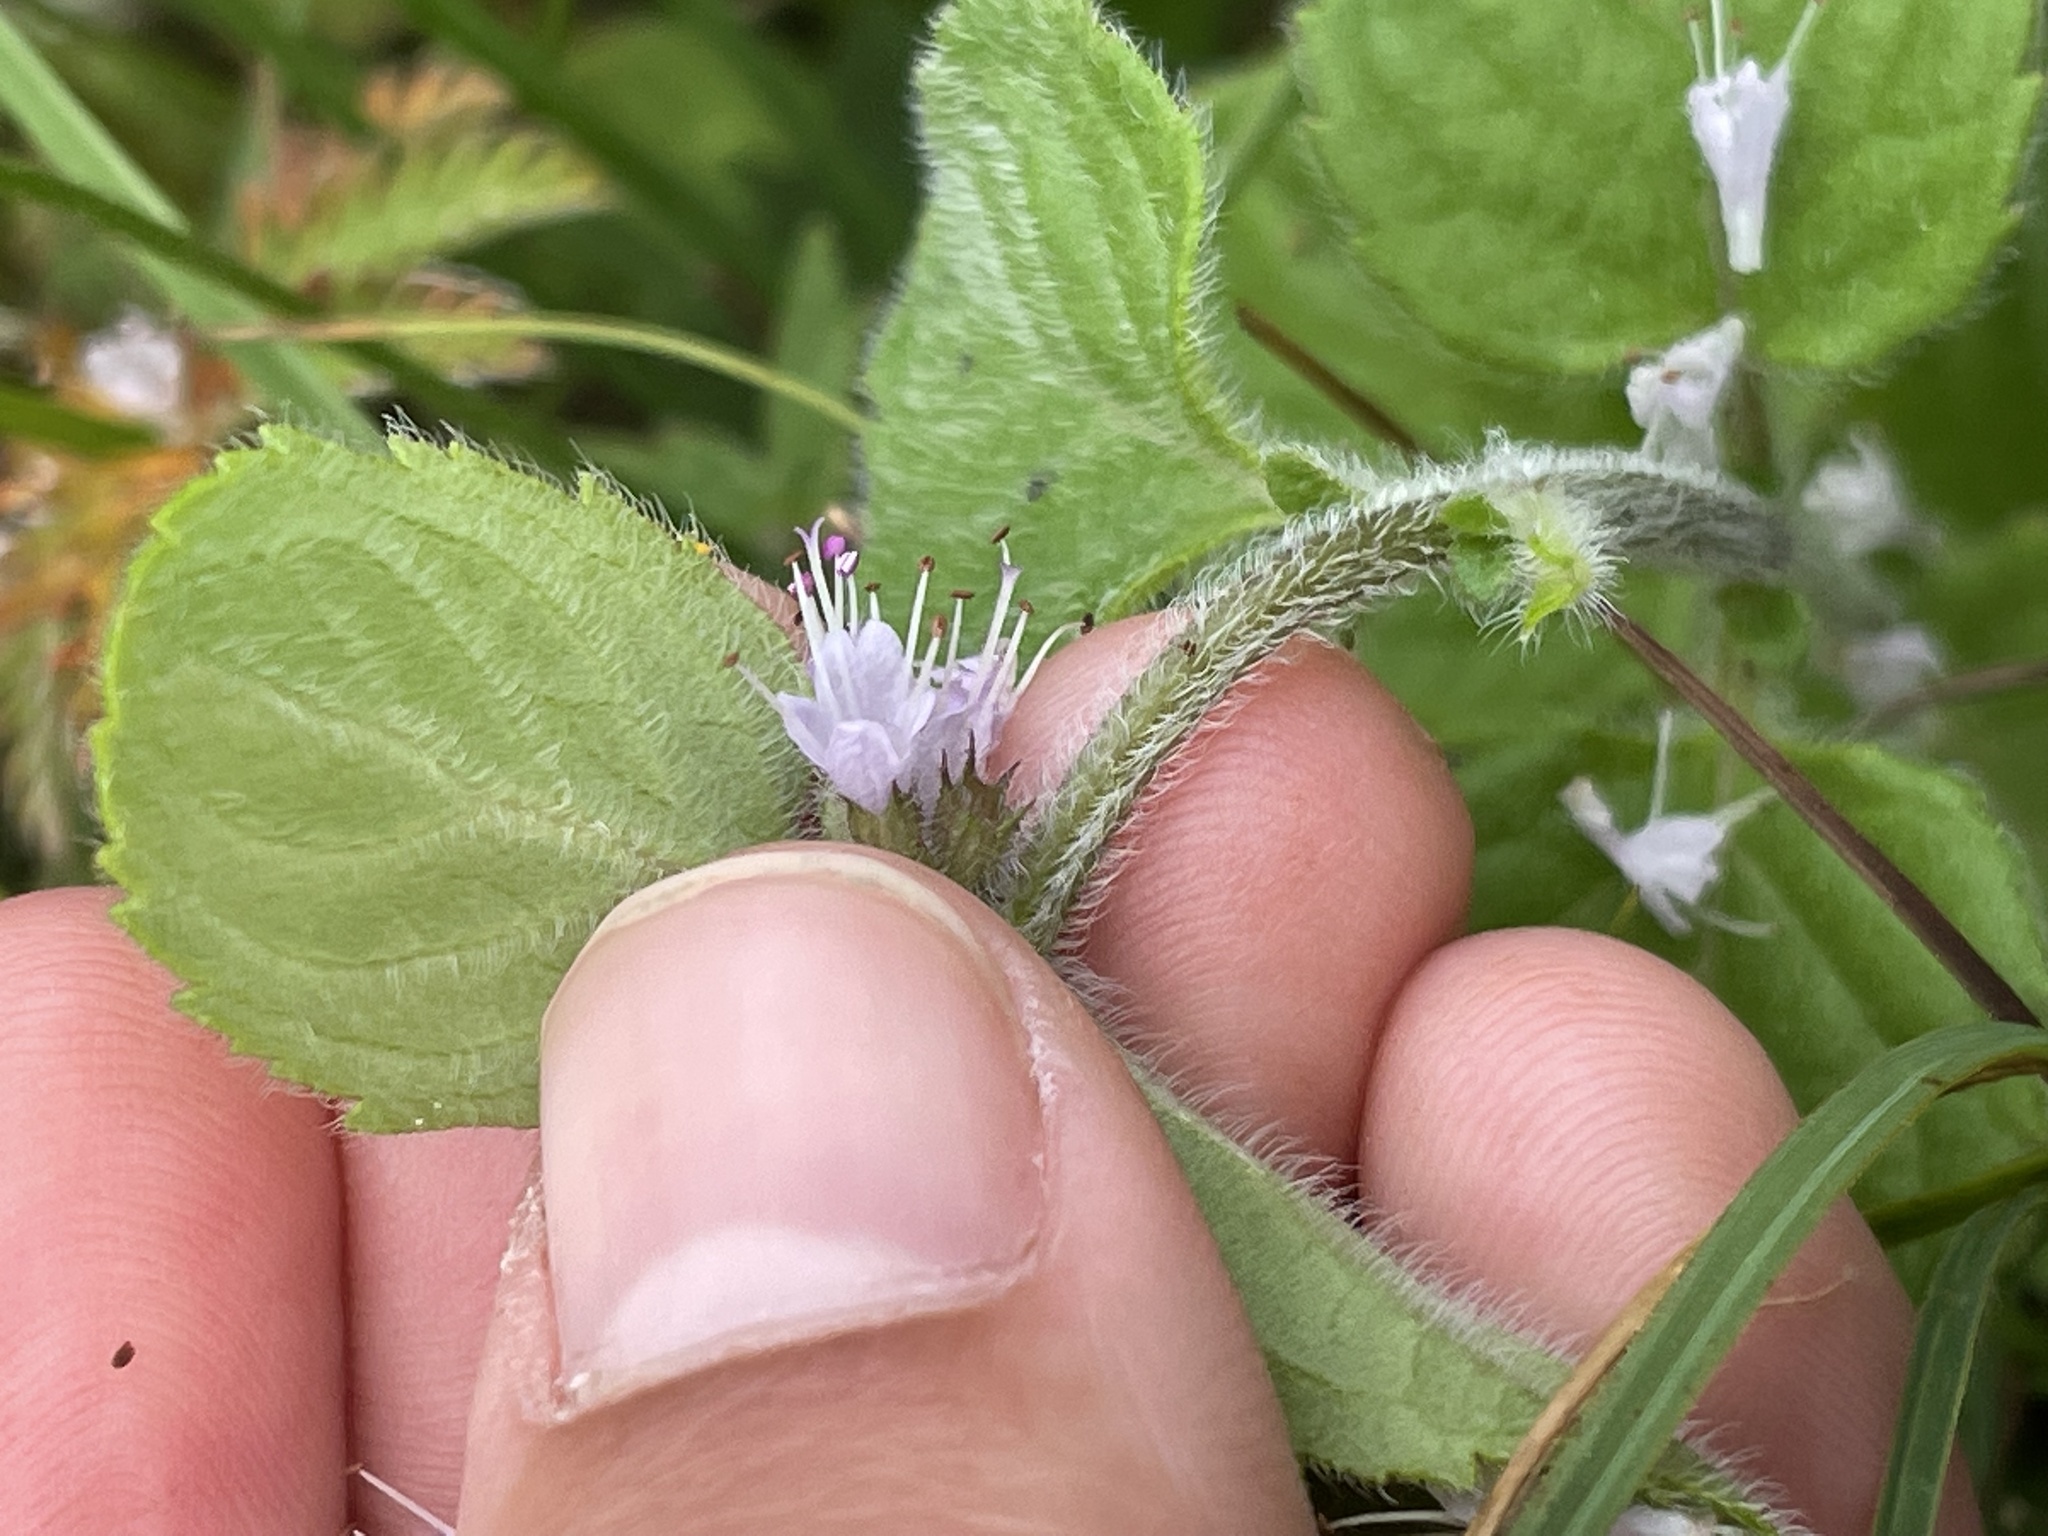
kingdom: Plantae
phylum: Tracheophyta
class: Magnoliopsida
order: Lamiales
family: Lamiaceae
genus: Mentha
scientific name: Mentha aquatica
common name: Water mint
